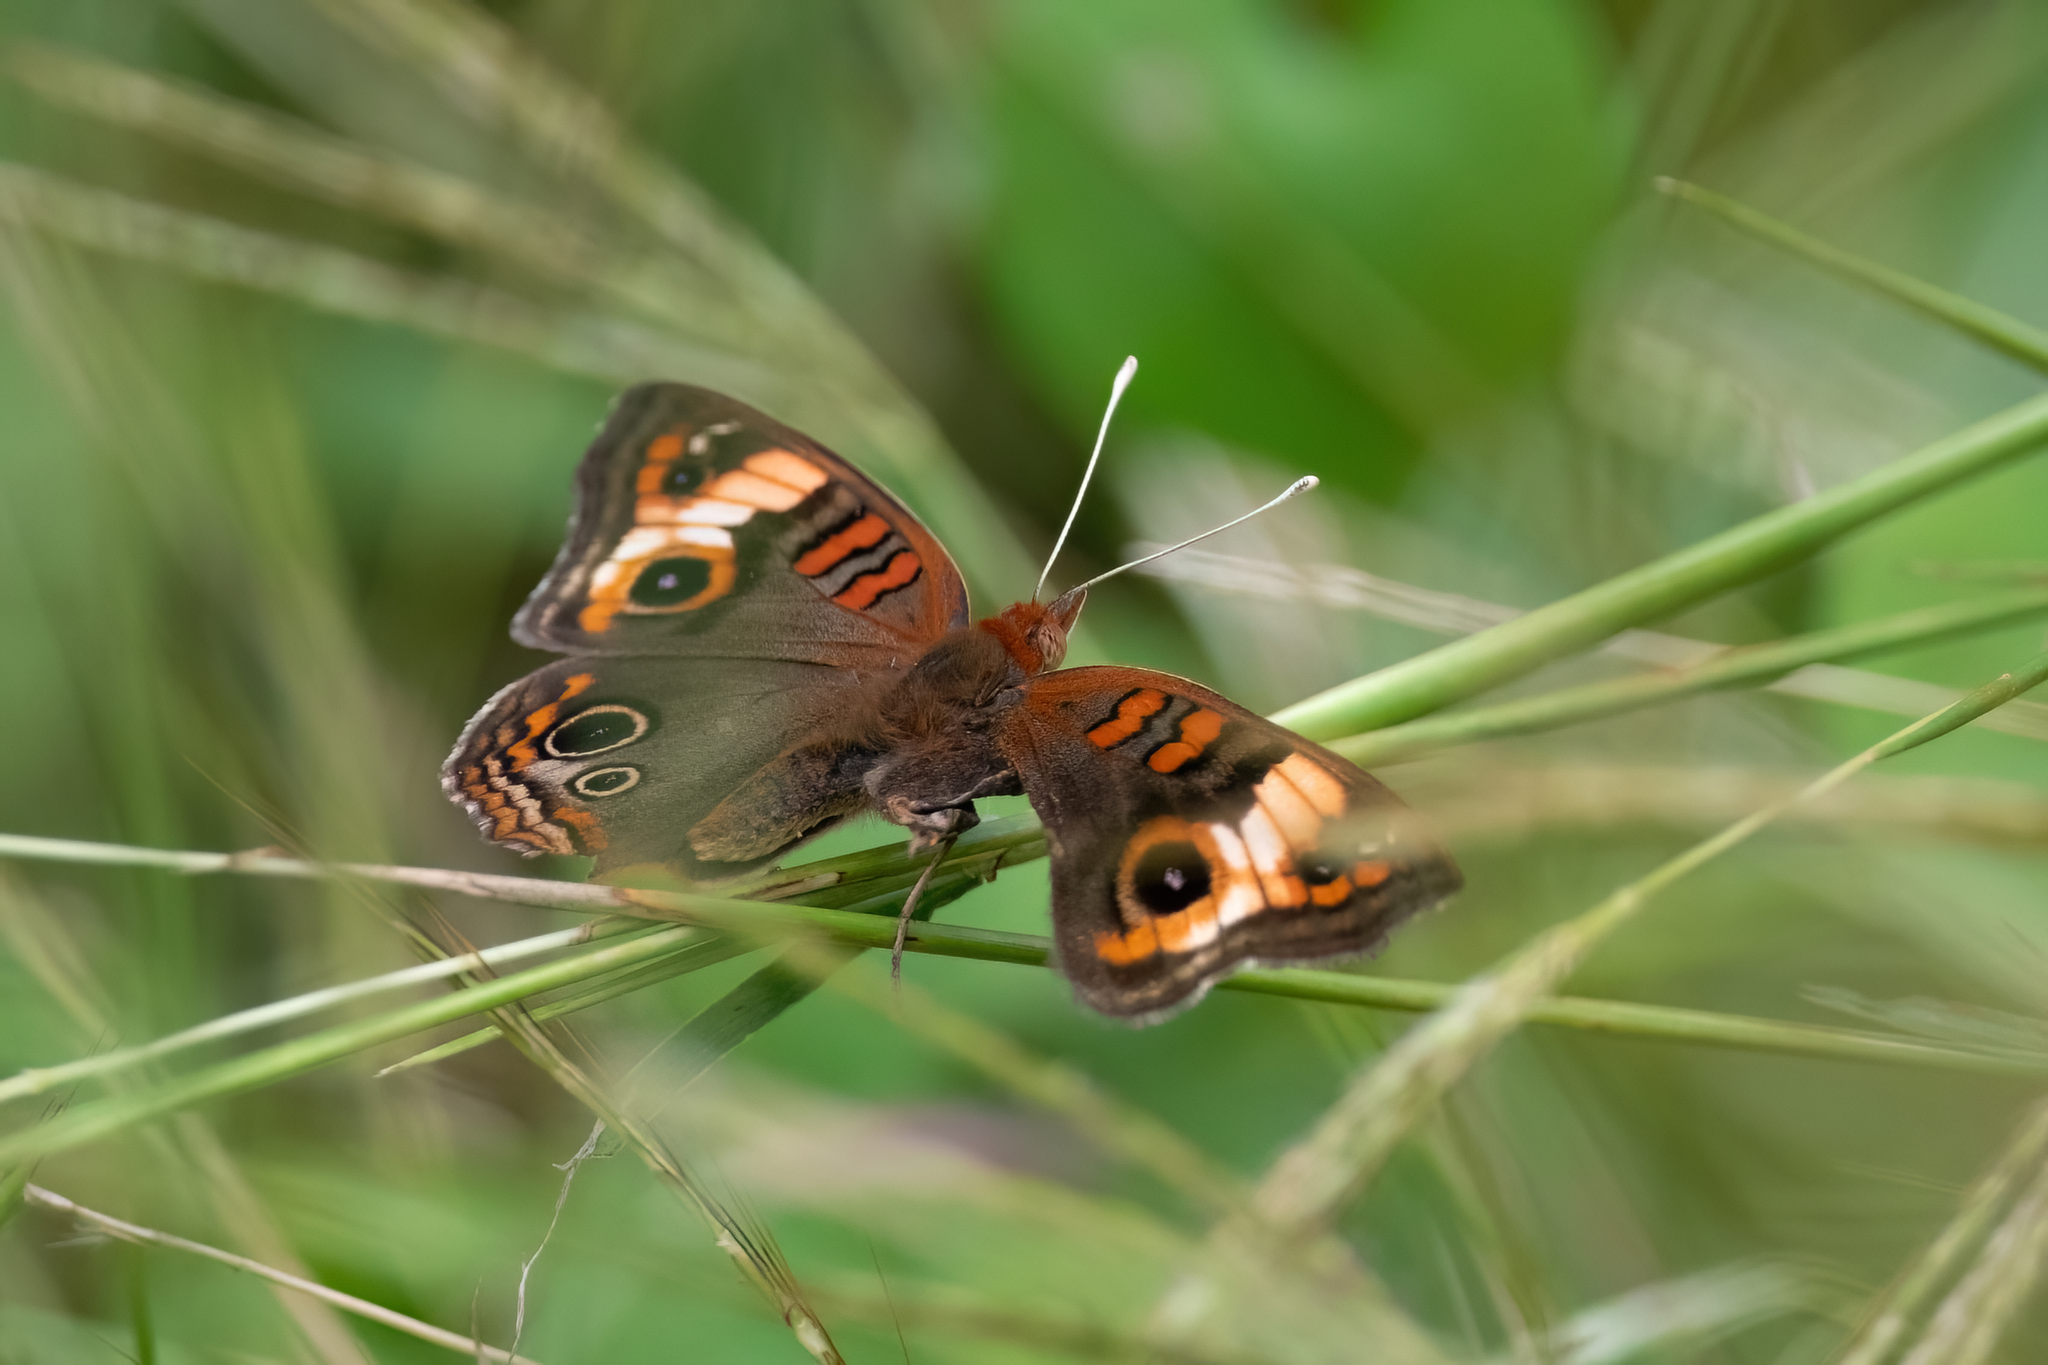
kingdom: Animalia
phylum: Arthropoda
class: Insecta
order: Lepidoptera
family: Nymphalidae
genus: Junonia
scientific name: Junonia lavinia
